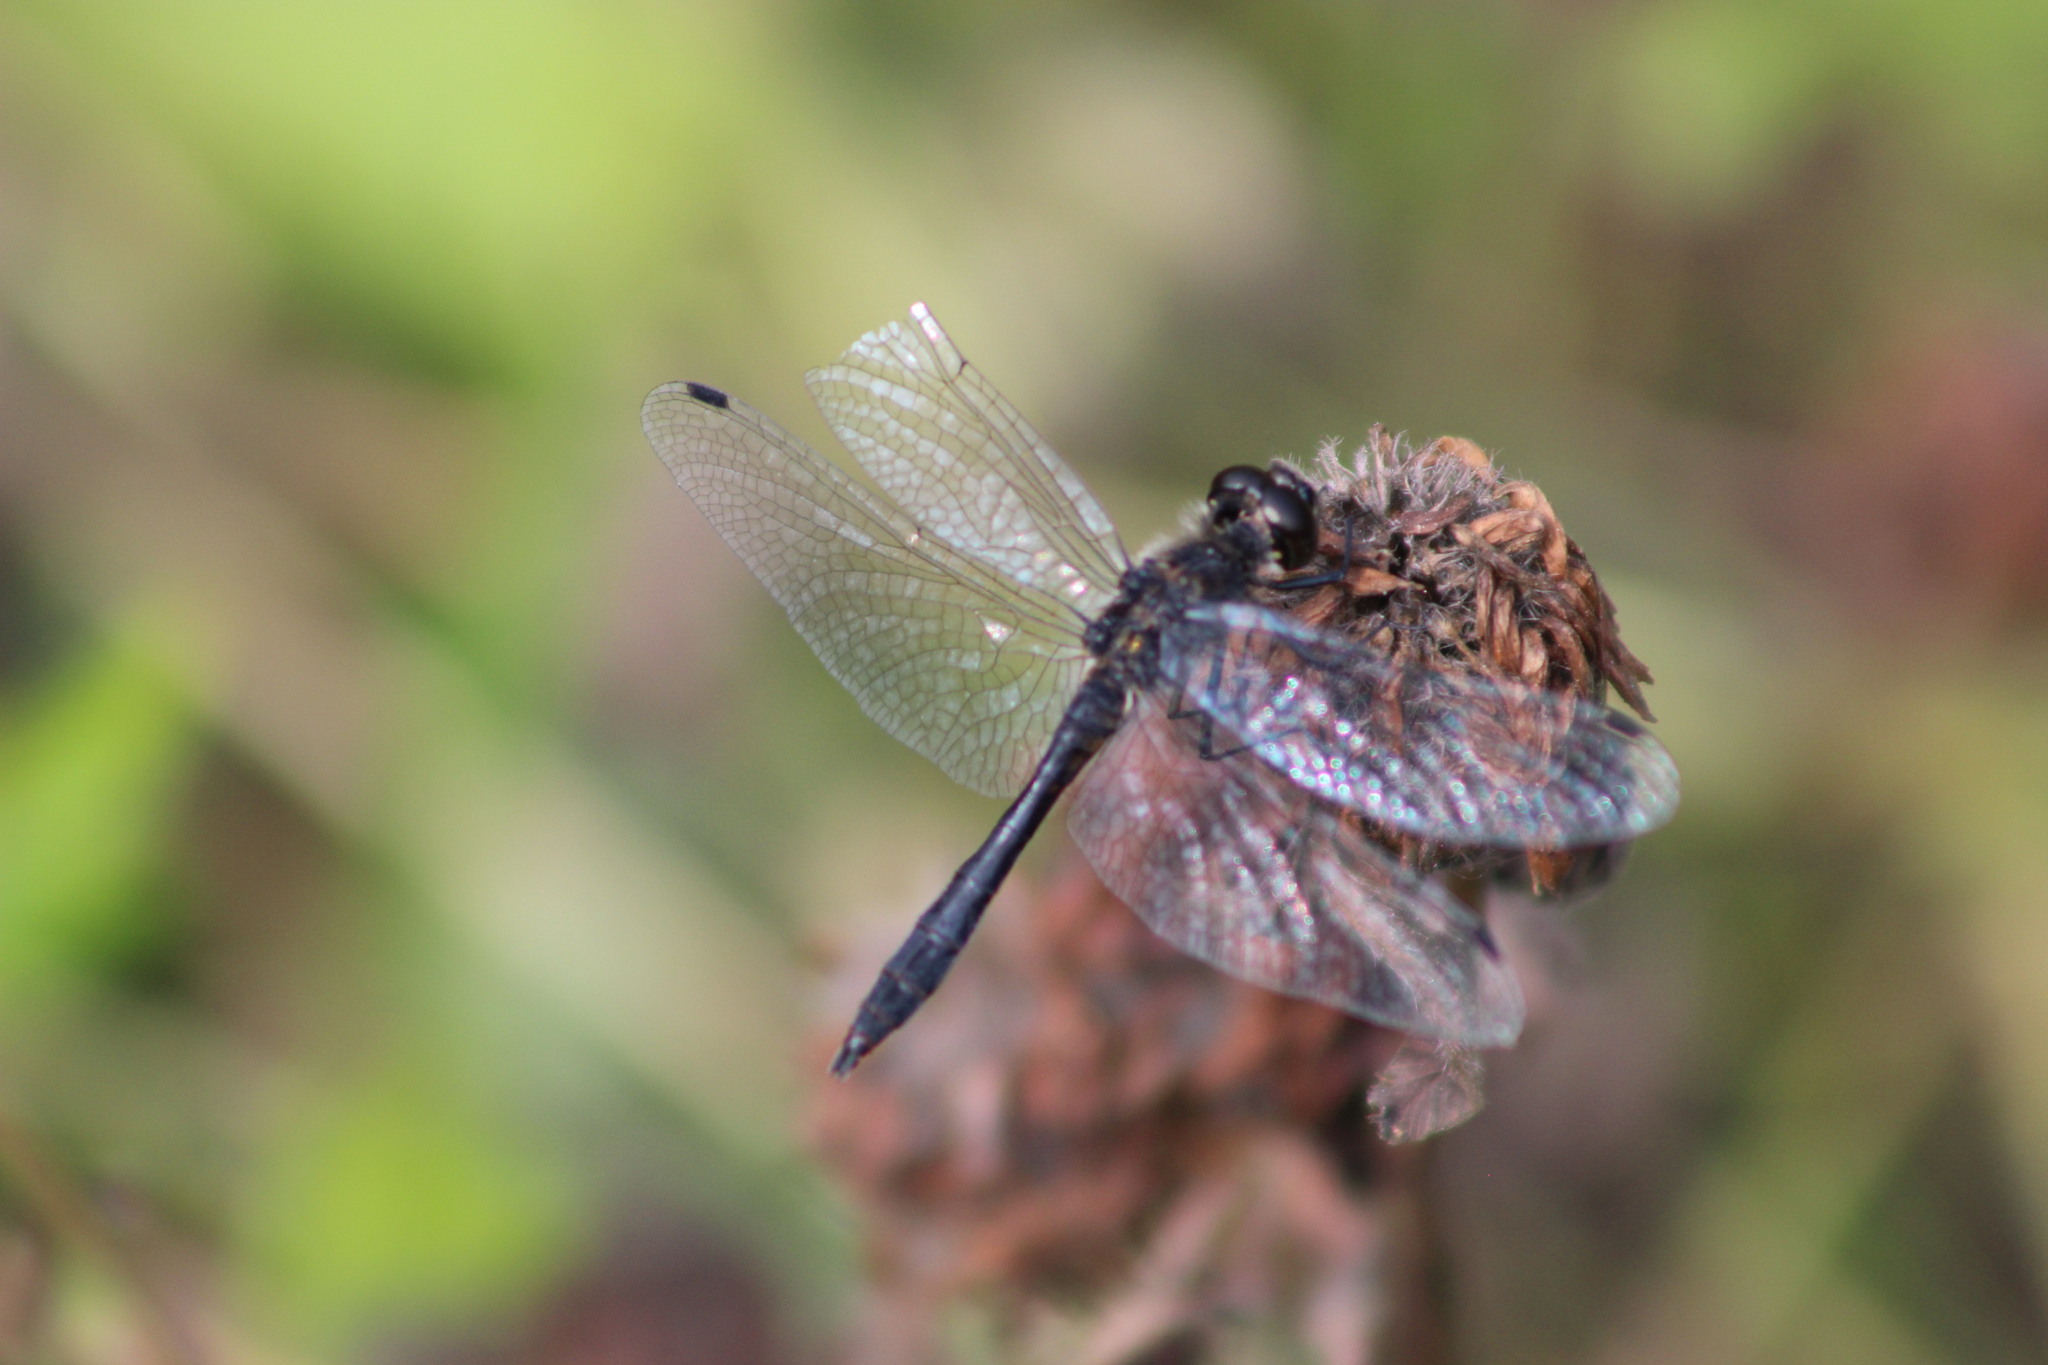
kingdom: Animalia
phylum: Arthropoda
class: Insecta
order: Odonata
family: Libellulidae
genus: Sympetrum
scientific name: Sympetrum danae
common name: Black darter
